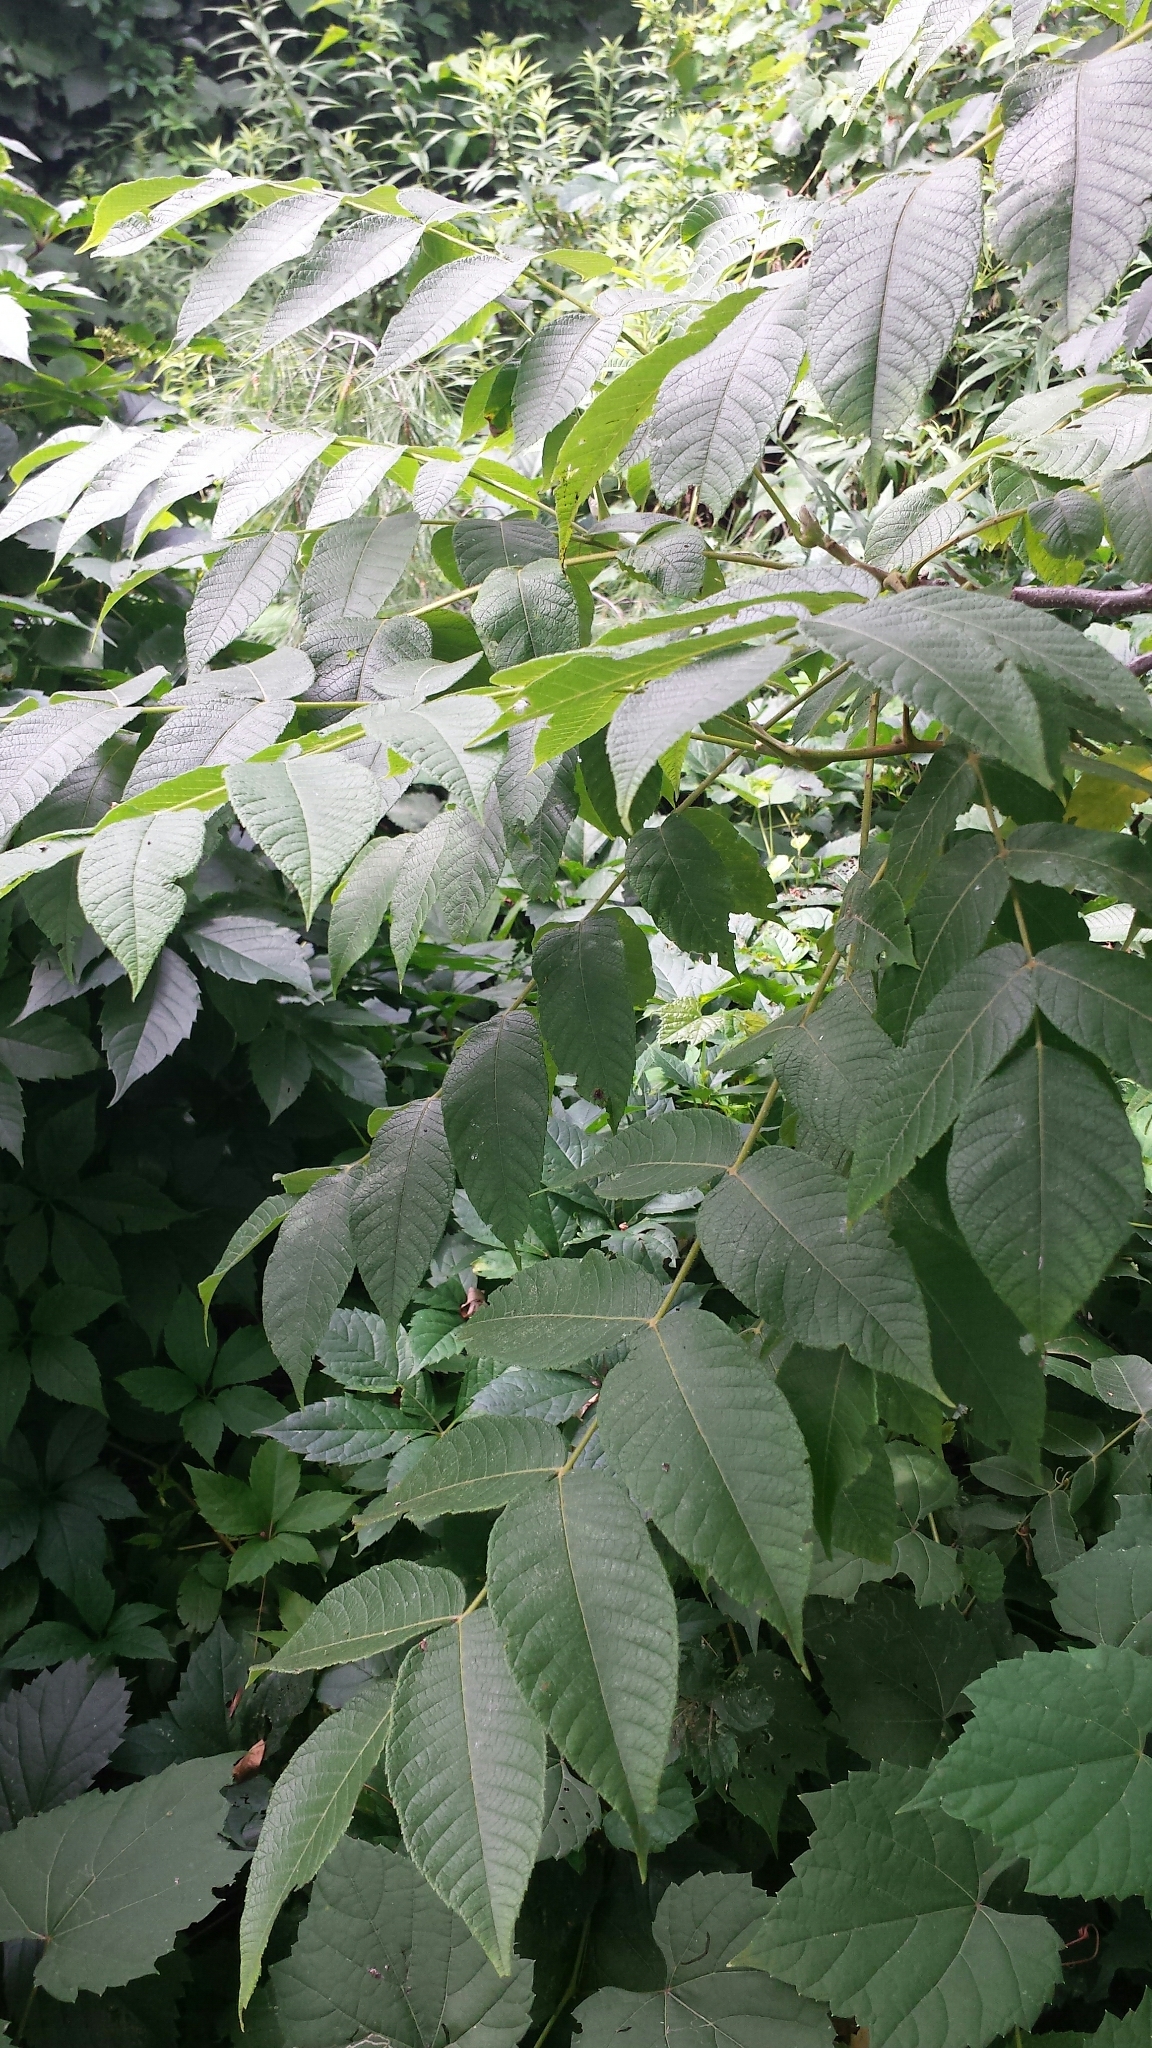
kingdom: Plantae
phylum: Tracheophyta
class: Magnoliopsida
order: Fagales
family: Juglandaceae
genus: Juglans
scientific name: Juglans cinerea
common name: Butternut
